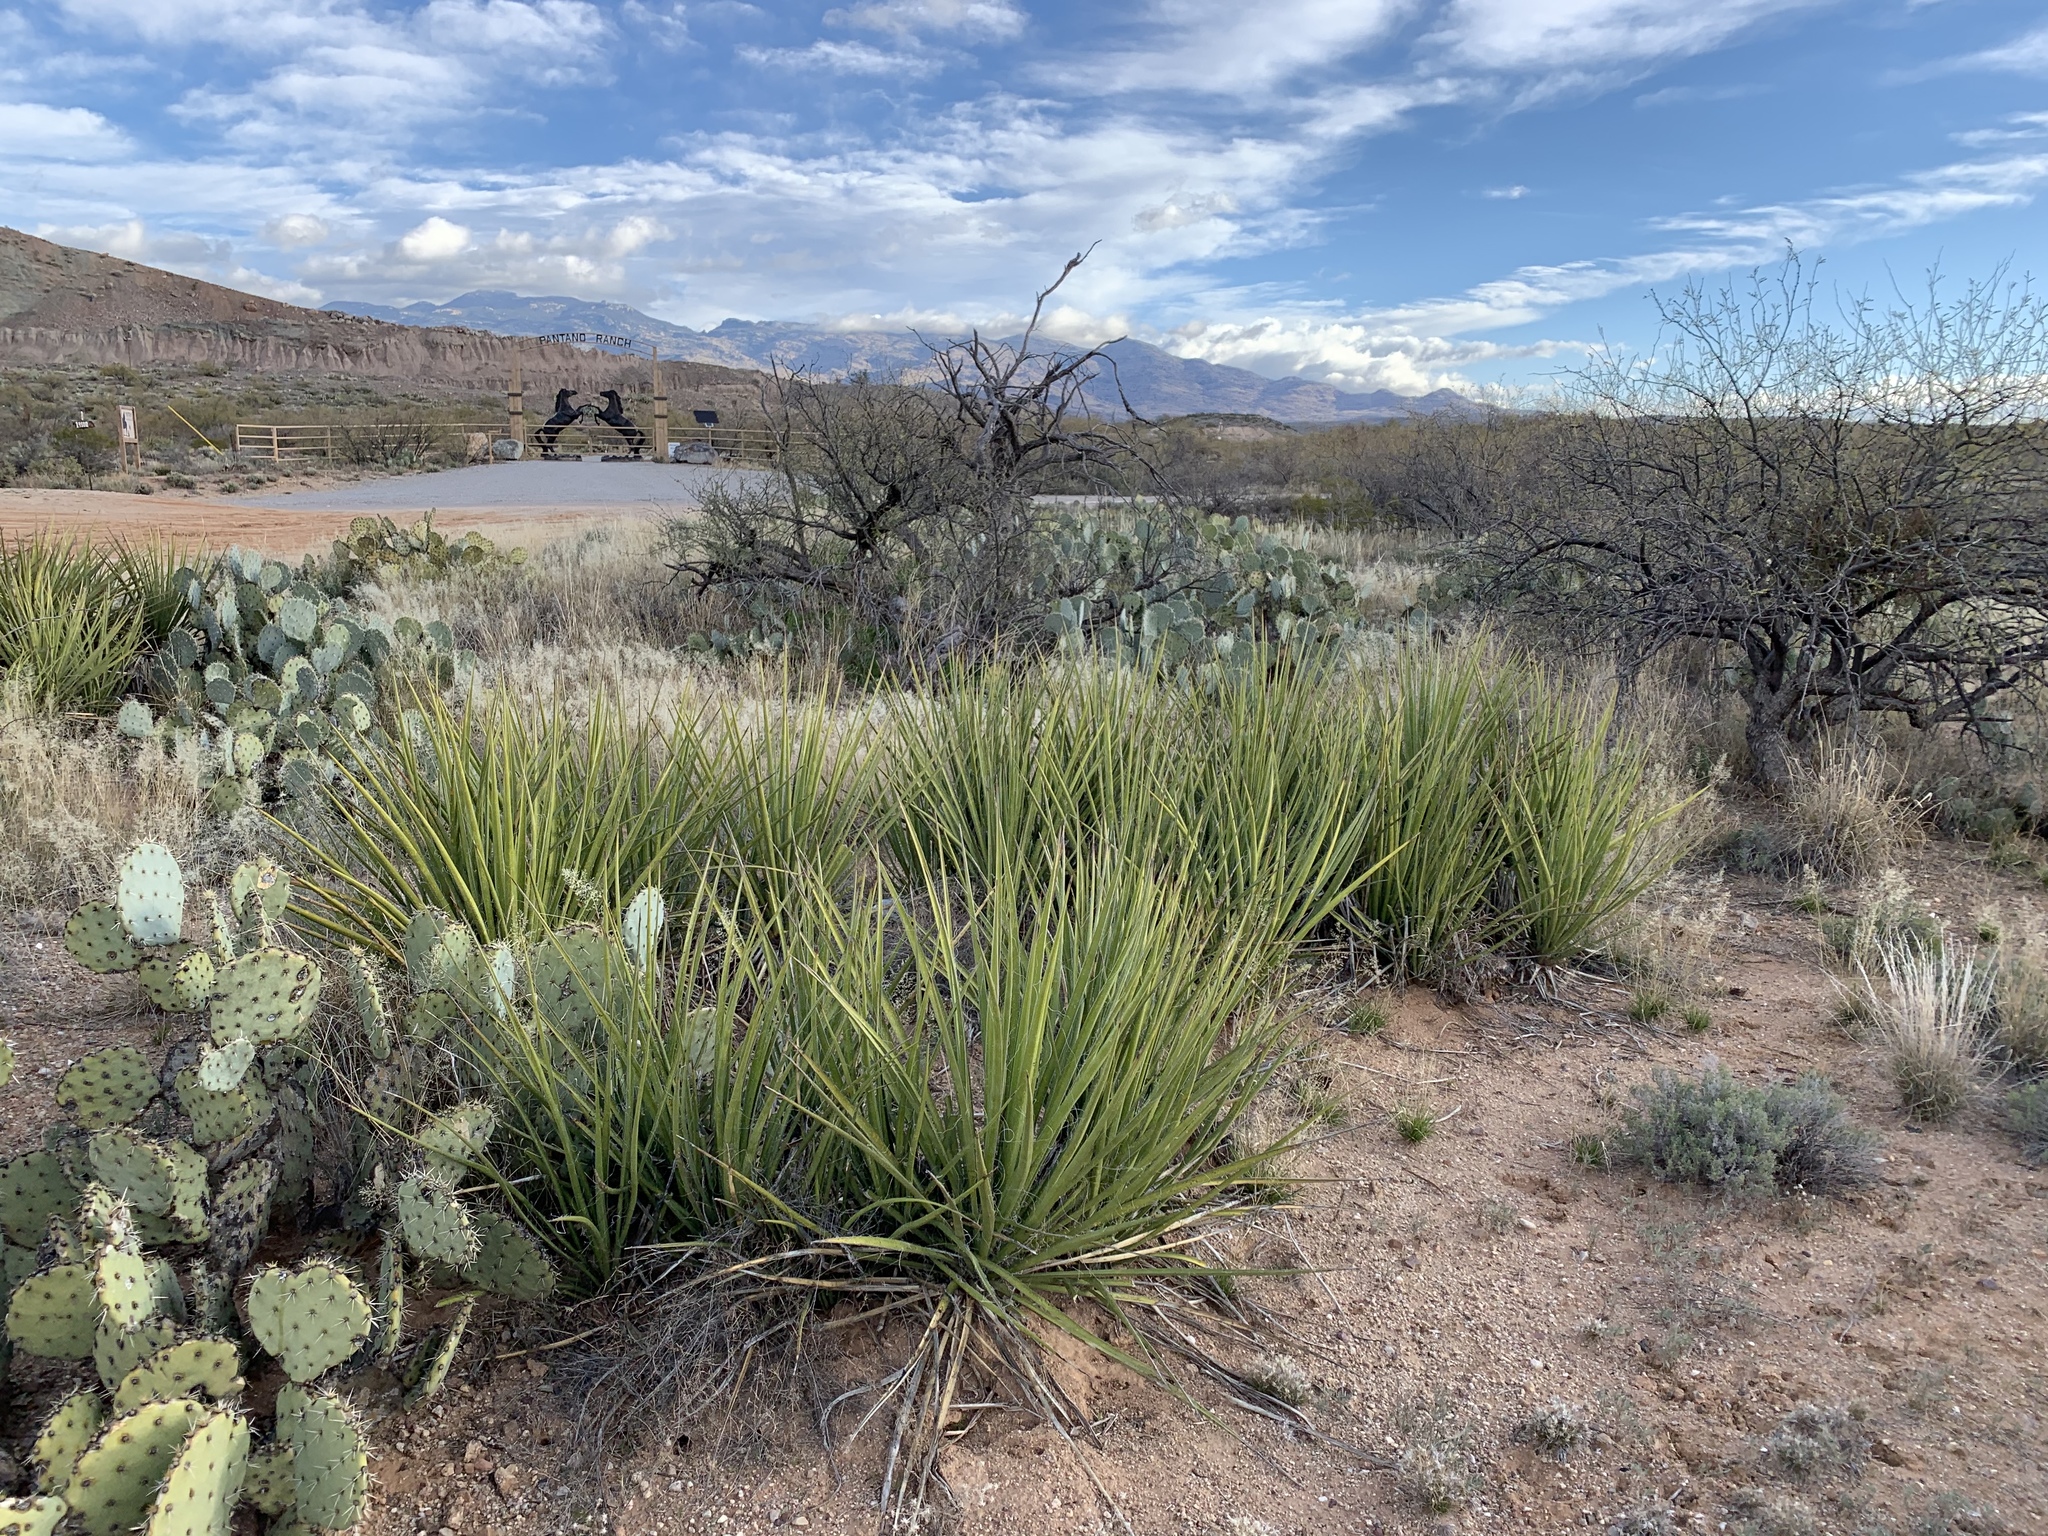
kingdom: Plantae
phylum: Tracheophyta
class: Liliopsida
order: Asparagales
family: Asparagaceae
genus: Yucca
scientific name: Yucca baccata
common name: Banana yucca
